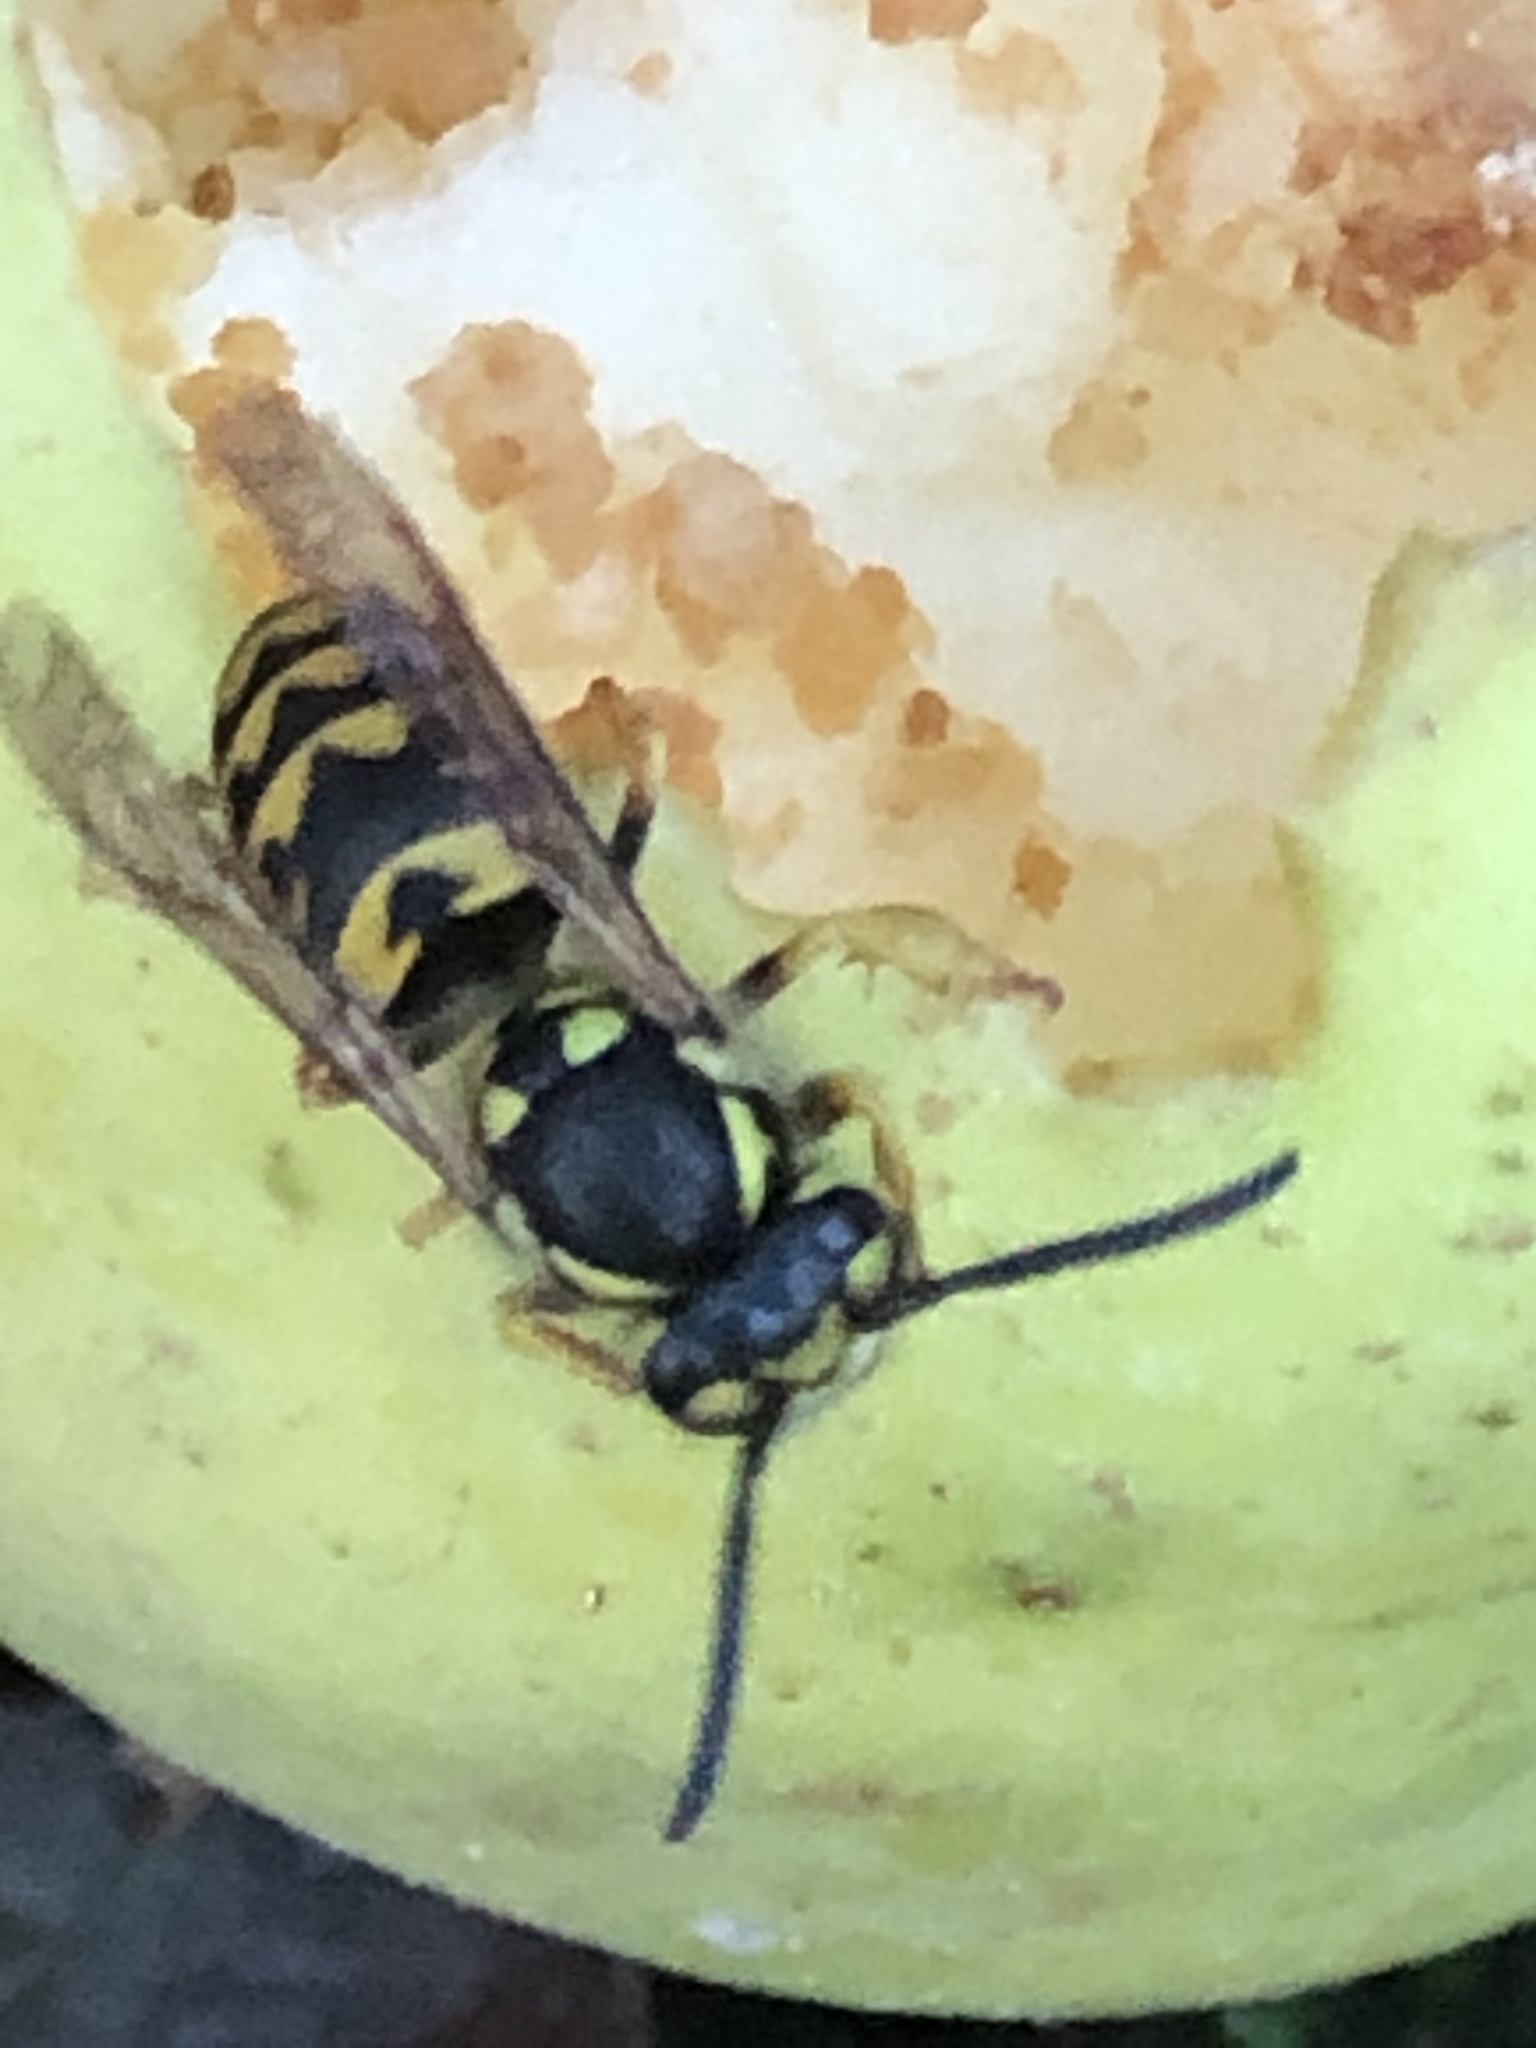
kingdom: Animalia
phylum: Arthropoda
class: Insecta
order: Hymenoptera
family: Vespidae
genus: Vespula
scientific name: Vespula germanica
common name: German wasp
